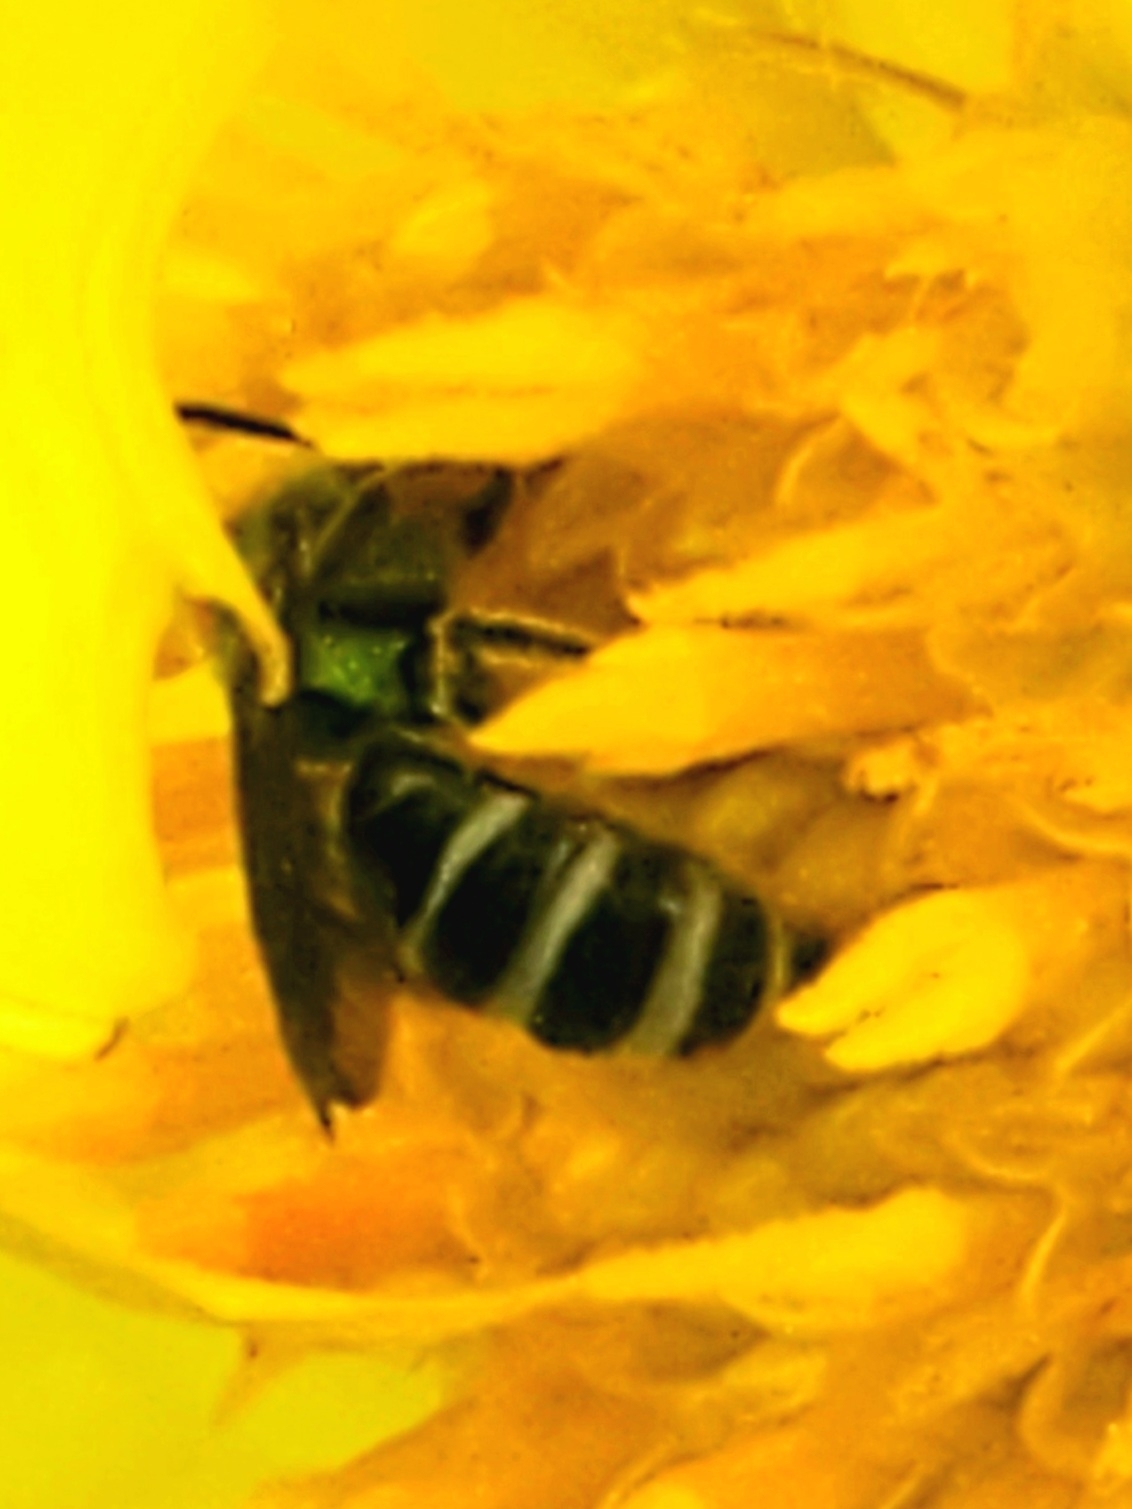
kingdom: Animalia
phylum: Arthropoda
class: Insecta
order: Hymenoptera
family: Halictidae
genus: Agapostemon
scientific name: Agapostemon virescens
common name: Bicolored striped sweat bee
